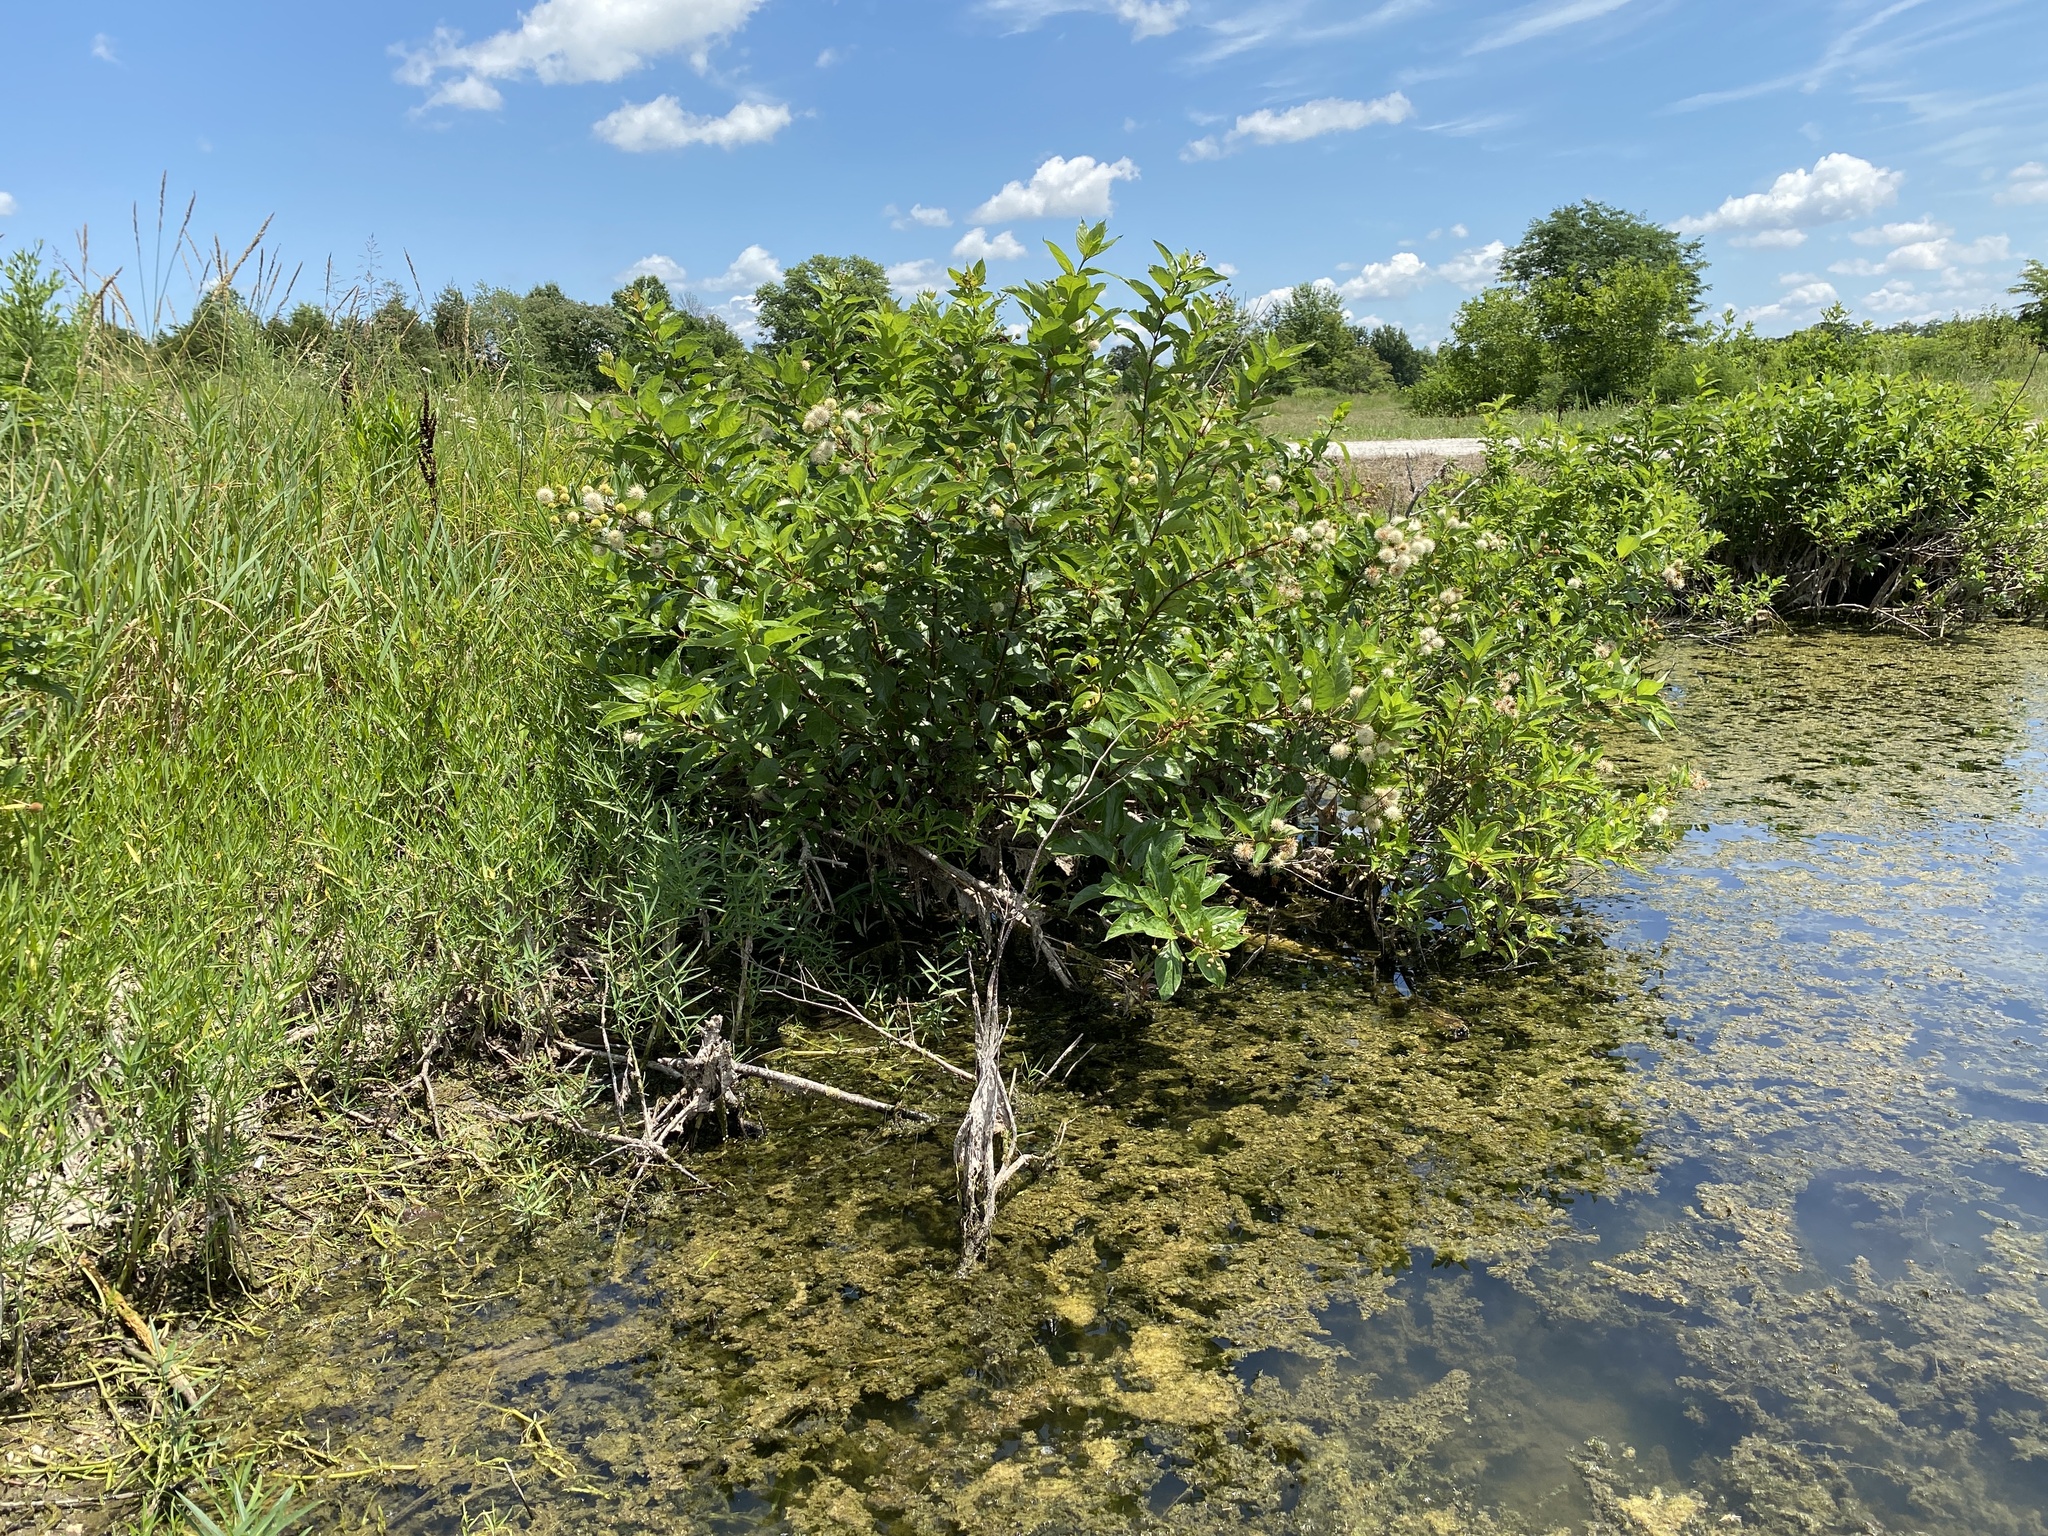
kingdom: Plantae
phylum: Tracheophyta
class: Magnoliopsida
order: Gentianales
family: Rubiaceae
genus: Cephalanthus
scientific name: Cephalanthus occidentalis
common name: Button-willow
